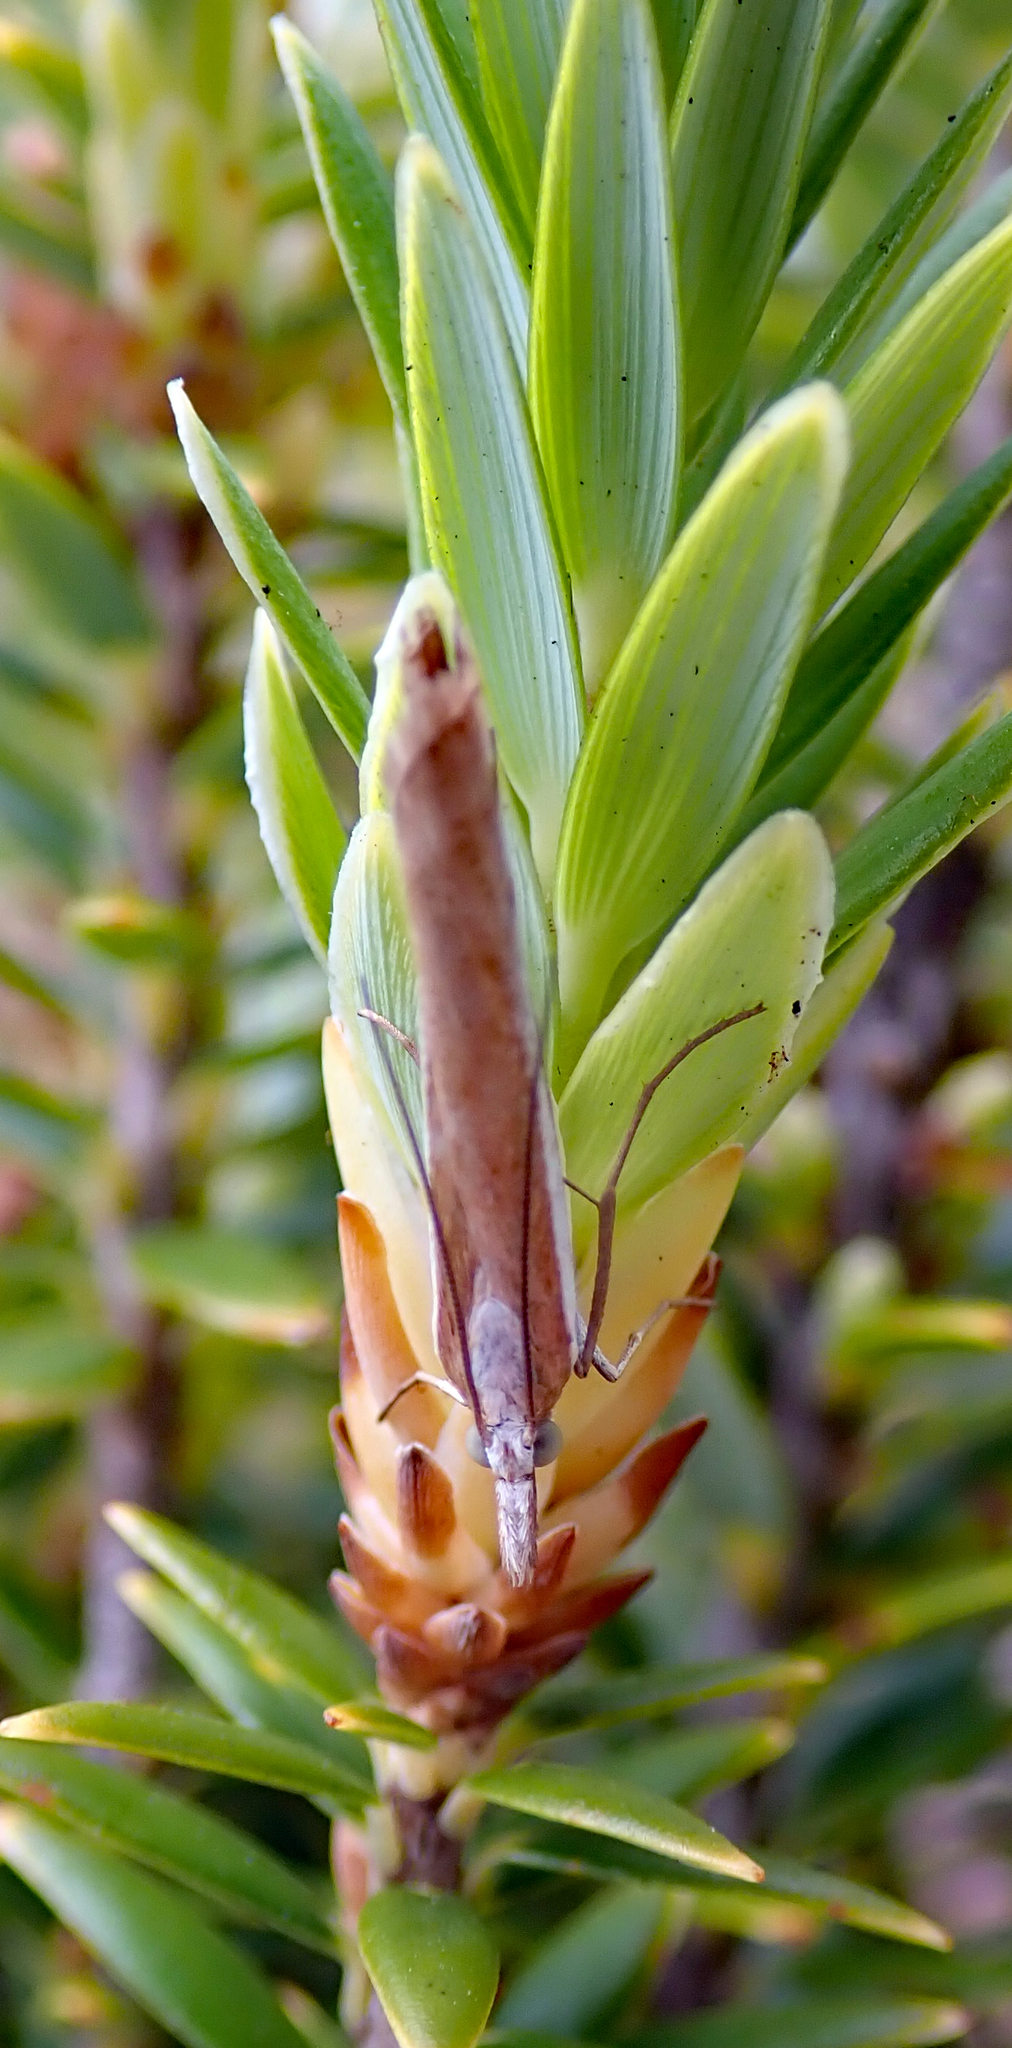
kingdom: Animalia
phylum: Arthropoda
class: Insecta
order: Lepidoptera
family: Crambidae
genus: Orocrambus
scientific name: Orocrambus vittellus
